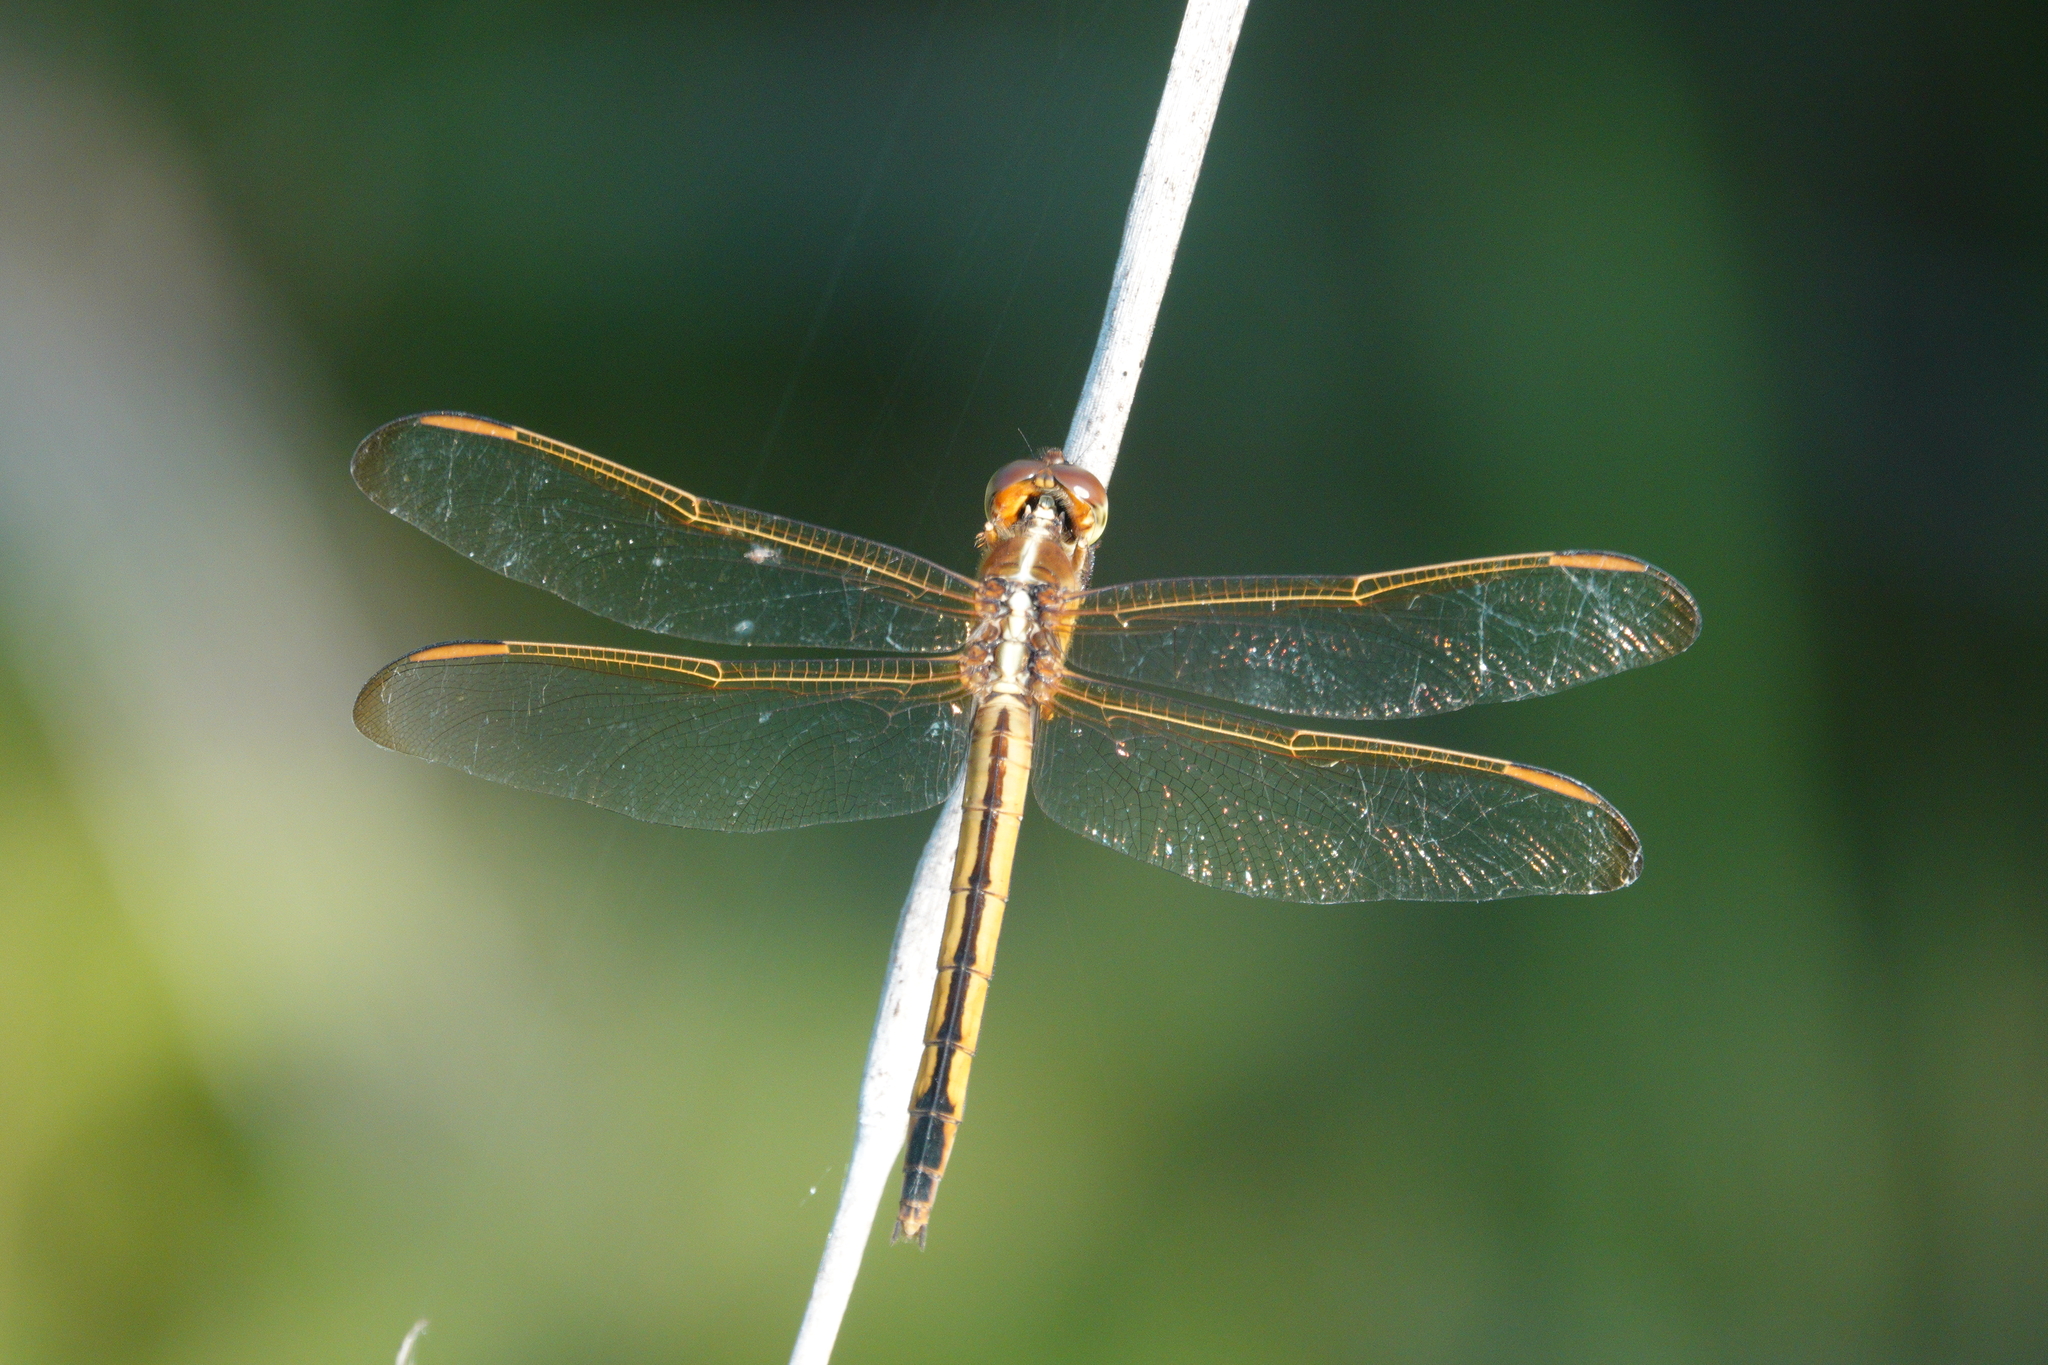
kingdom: Animalia
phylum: Arthropoda
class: Insecta
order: Odonata
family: Libellulidae
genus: Libellula
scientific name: Libellula needhami
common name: Needham's skimmer
